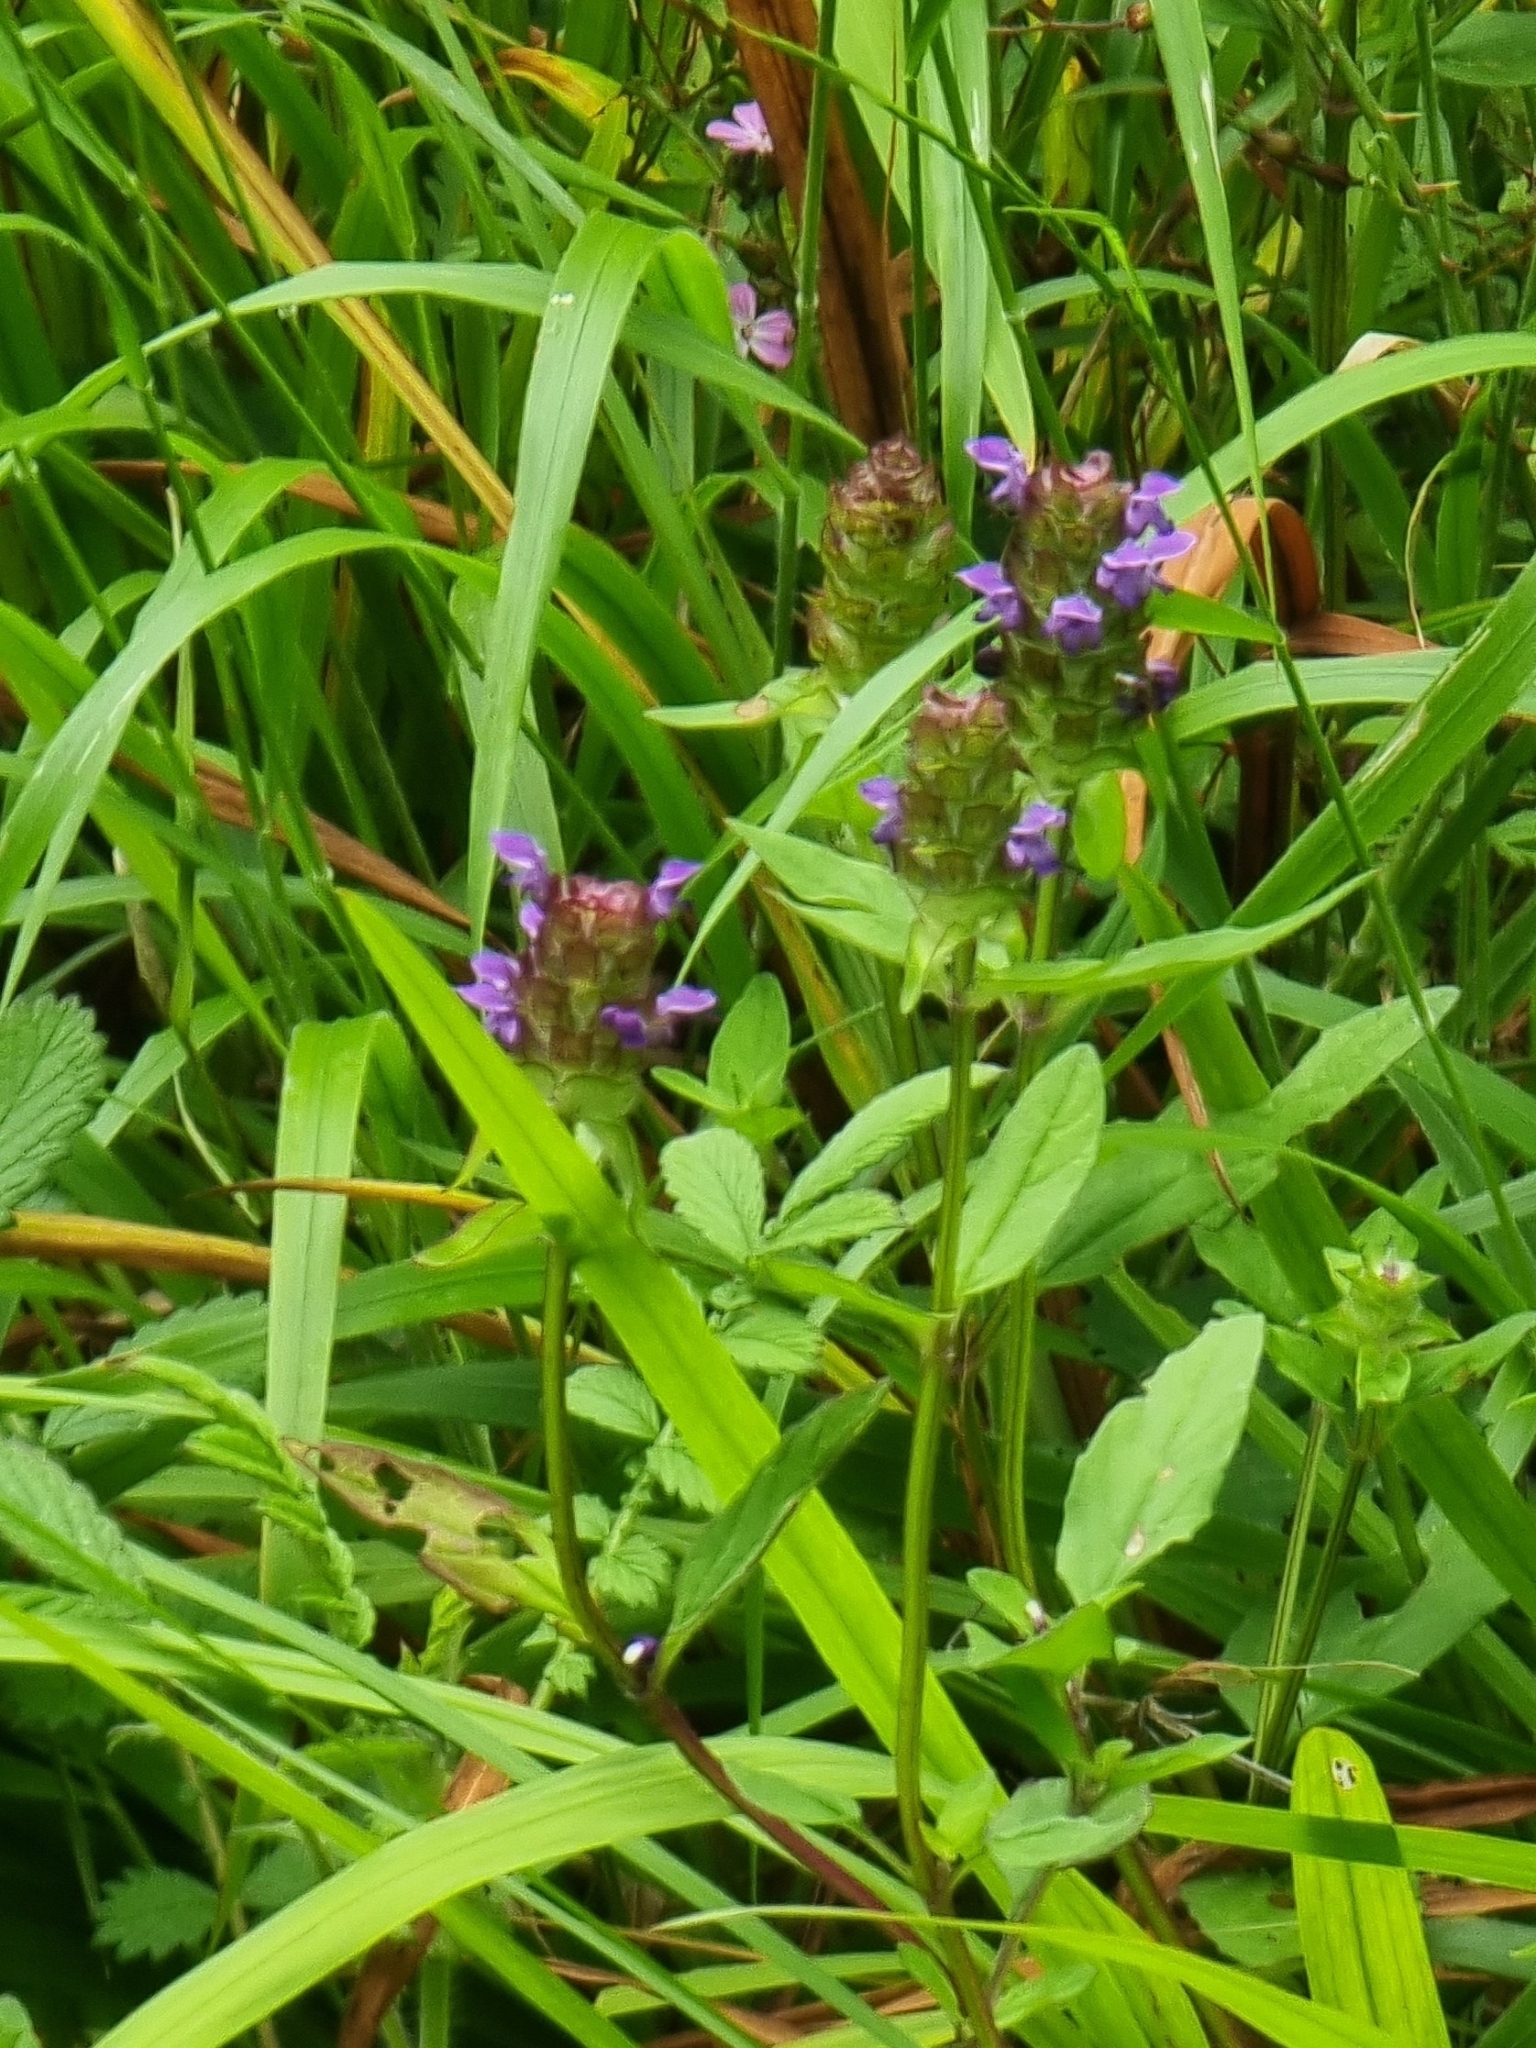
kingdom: Plantae
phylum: Tracheophyta
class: Magnoliopsida
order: Lamiales
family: Lamiaceae
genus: Prunella
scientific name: Prunella vulgaris
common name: Heal-all
